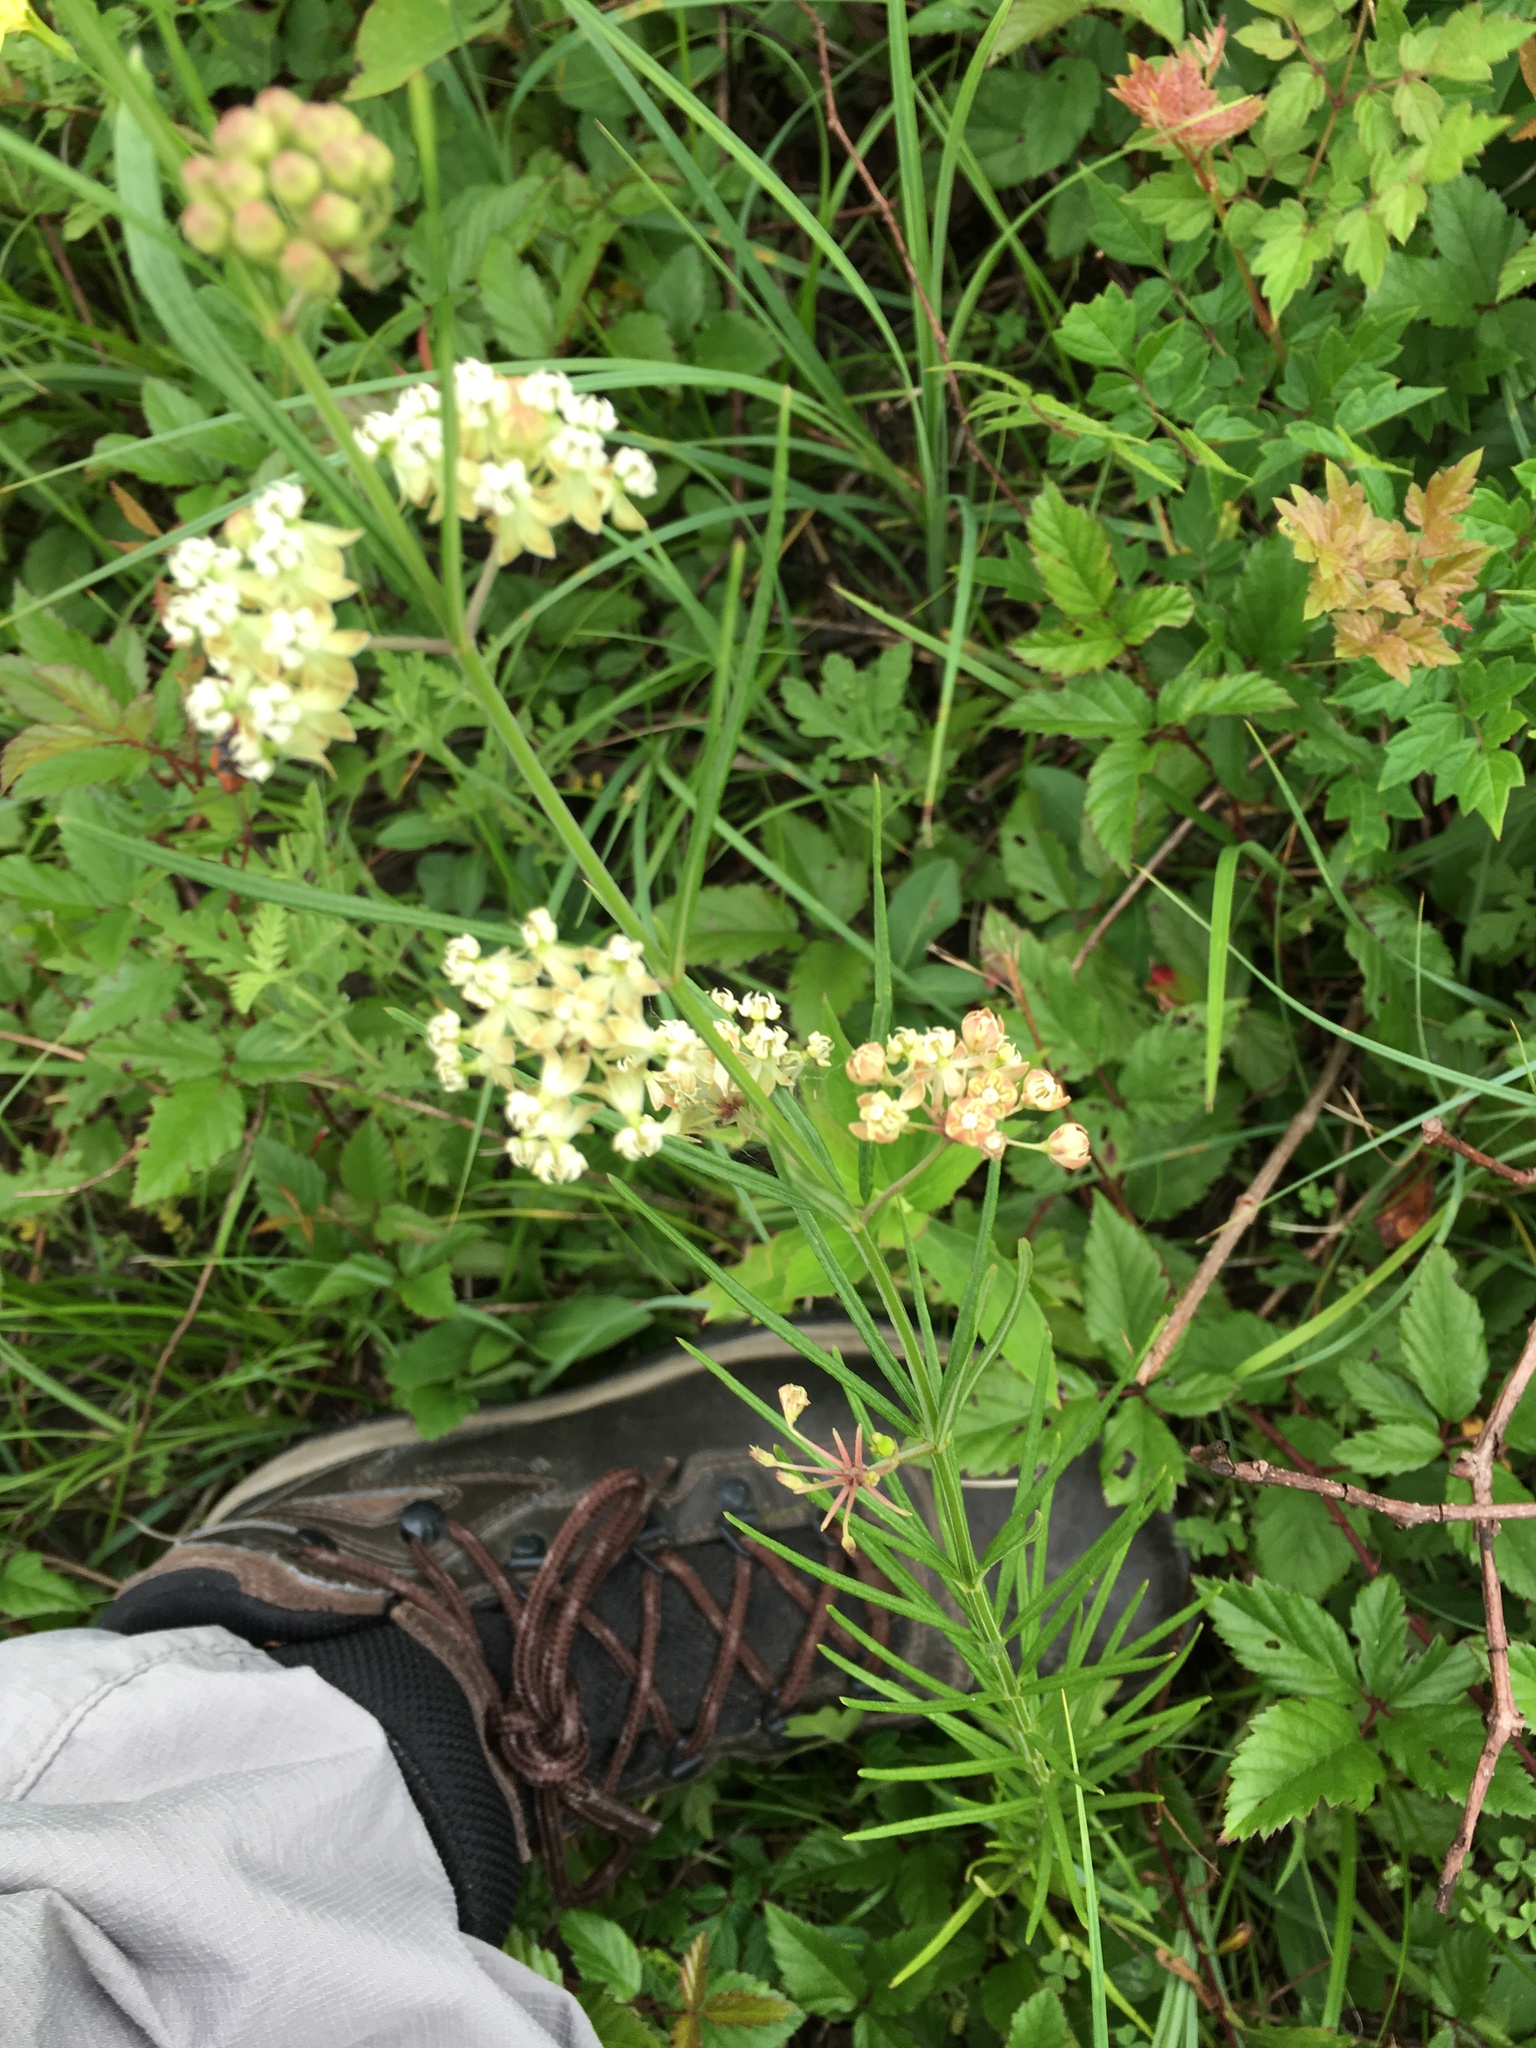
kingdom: Plantae
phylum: Tracheophyta
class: Magnoliopsida
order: Gentianales
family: Apocynaceae
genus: Asclepias
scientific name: Asclepias verticillata
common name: Eastern whorled milkweed
